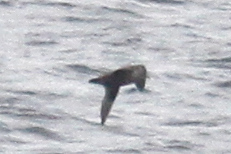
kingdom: Animalia
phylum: Chordata
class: Aves
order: Procellariiformes
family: Procellariidae
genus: Fulmarus
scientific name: Fulmarus glacialis
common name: Northern fulmar
